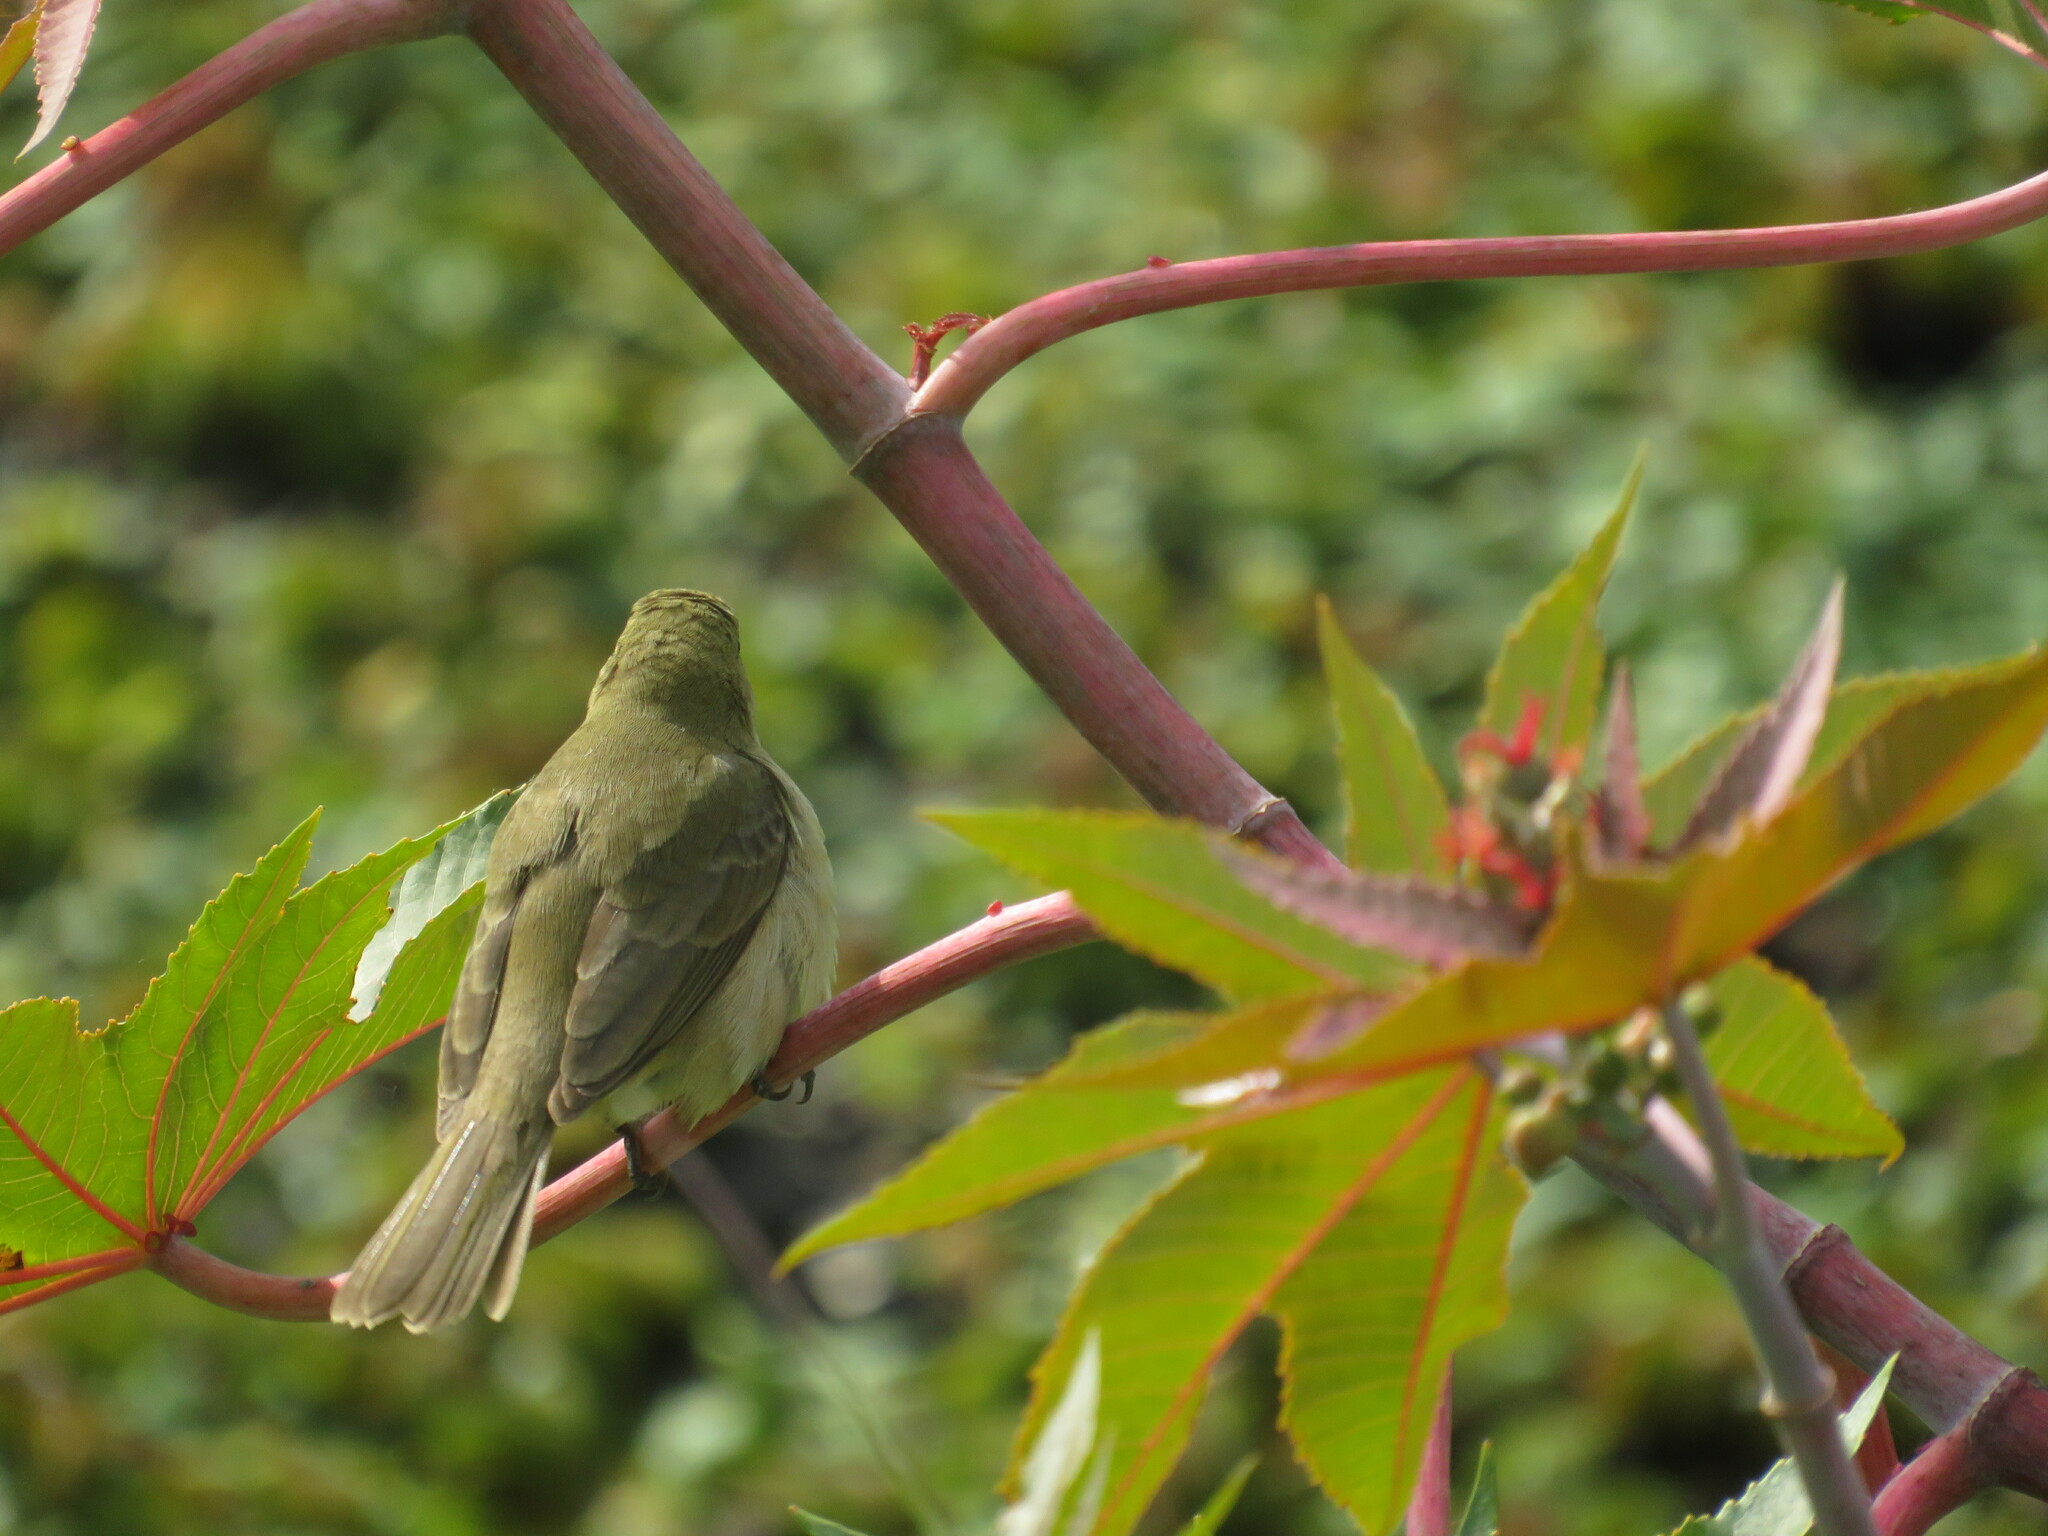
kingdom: Animalia
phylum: Chordata
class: Aves
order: Passeriformes
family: Thraupidae
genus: Sporophila
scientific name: Sporophila caerulescens
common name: Double-collared seedeater
